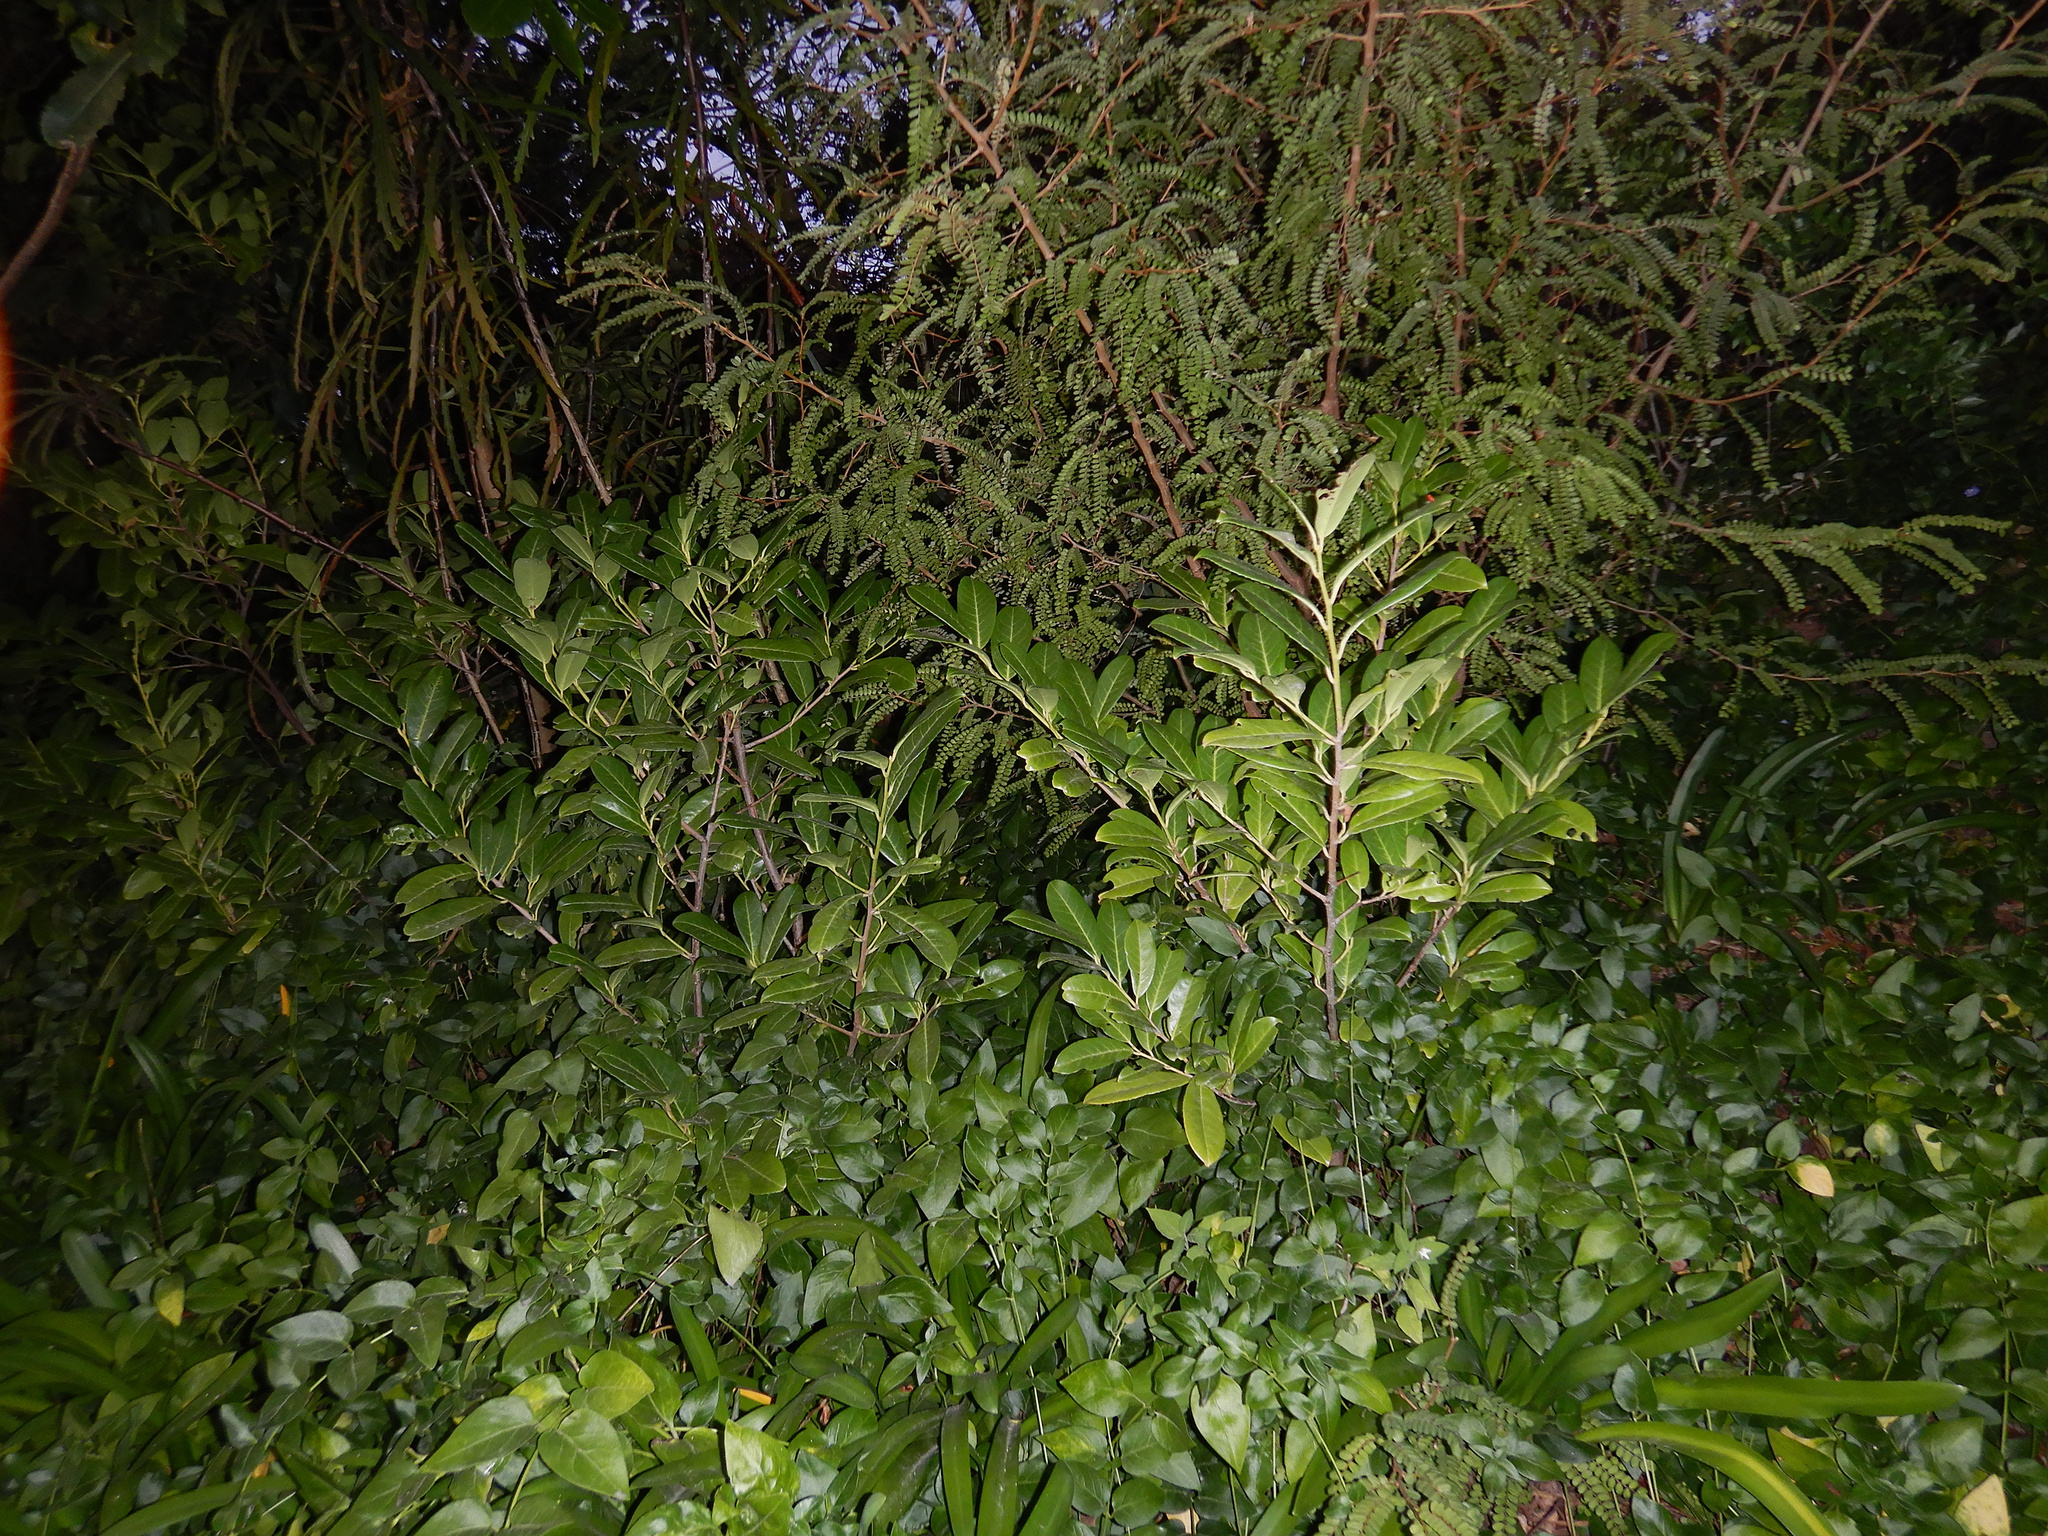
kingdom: Plantae
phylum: Tracheophyta
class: Magnoliopsida
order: Rosales
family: Rosaceae
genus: Prunus
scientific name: Prunus laurocerasus
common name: Cherry laurel
